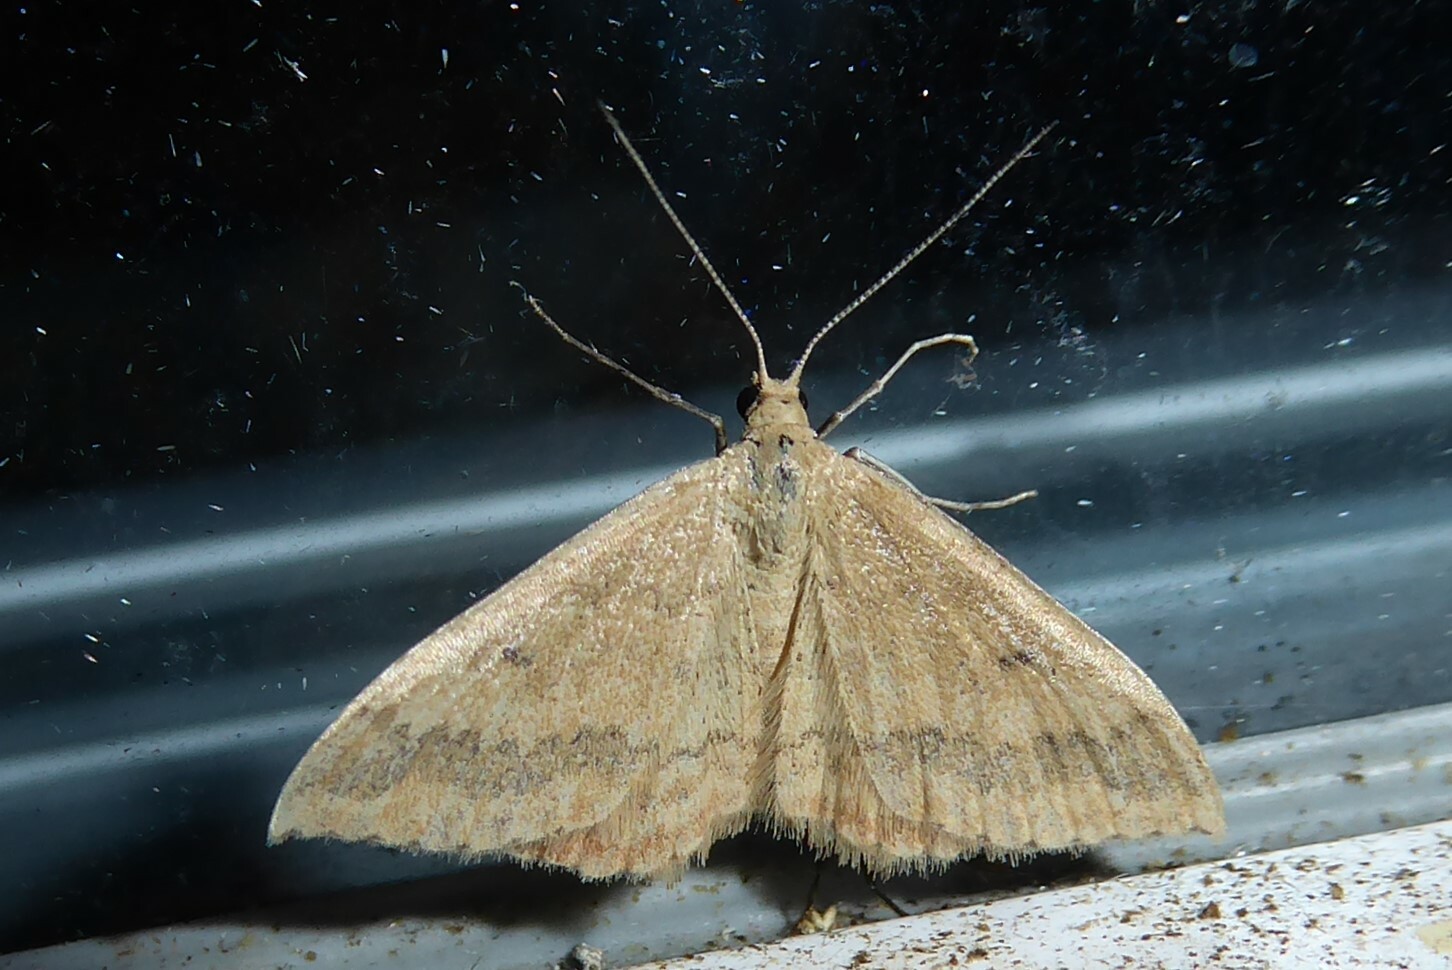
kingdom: Animalia
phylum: Arthropoda
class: Insecta
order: Lepidoptera
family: Geometridae
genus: Scopula
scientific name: Scopula rubraria
